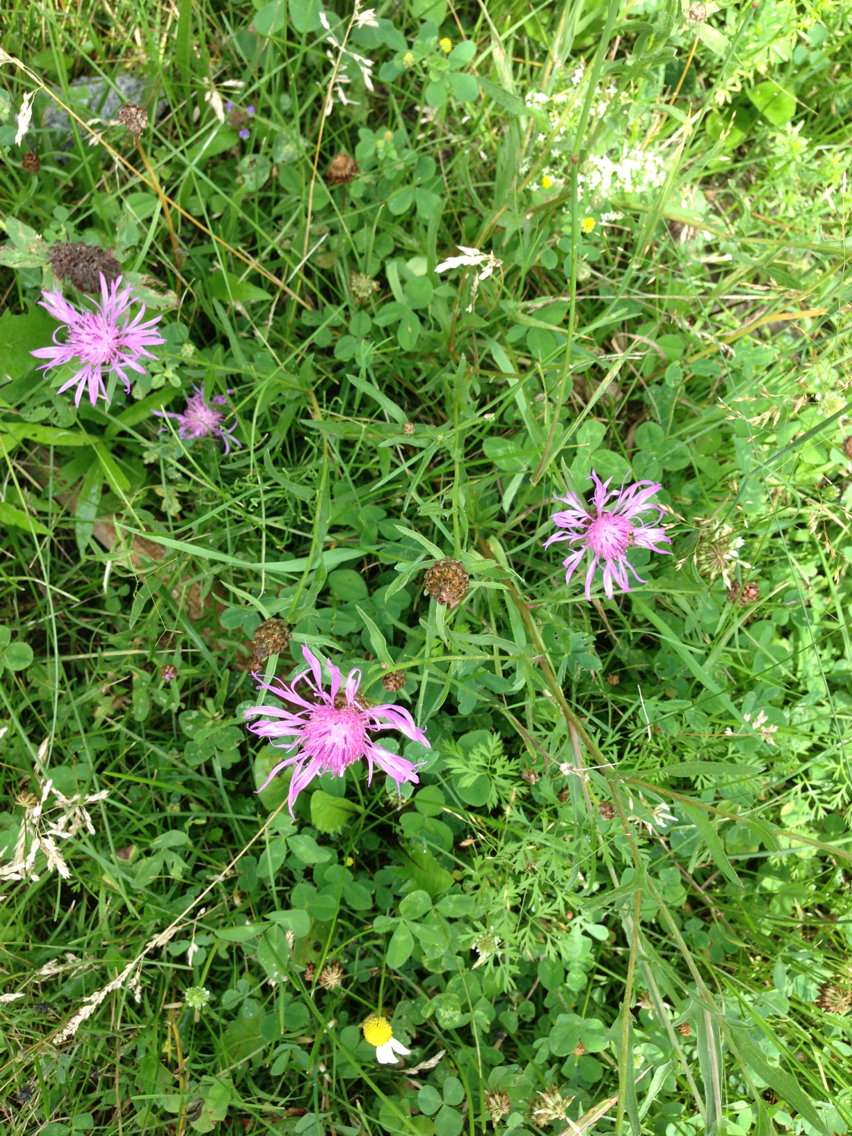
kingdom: Plantae
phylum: Tracheophyta
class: Magnoliopsida
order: Asterales
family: Asteraceae
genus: Centaurea
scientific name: Centaurea jacea
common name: Brown knapweed
